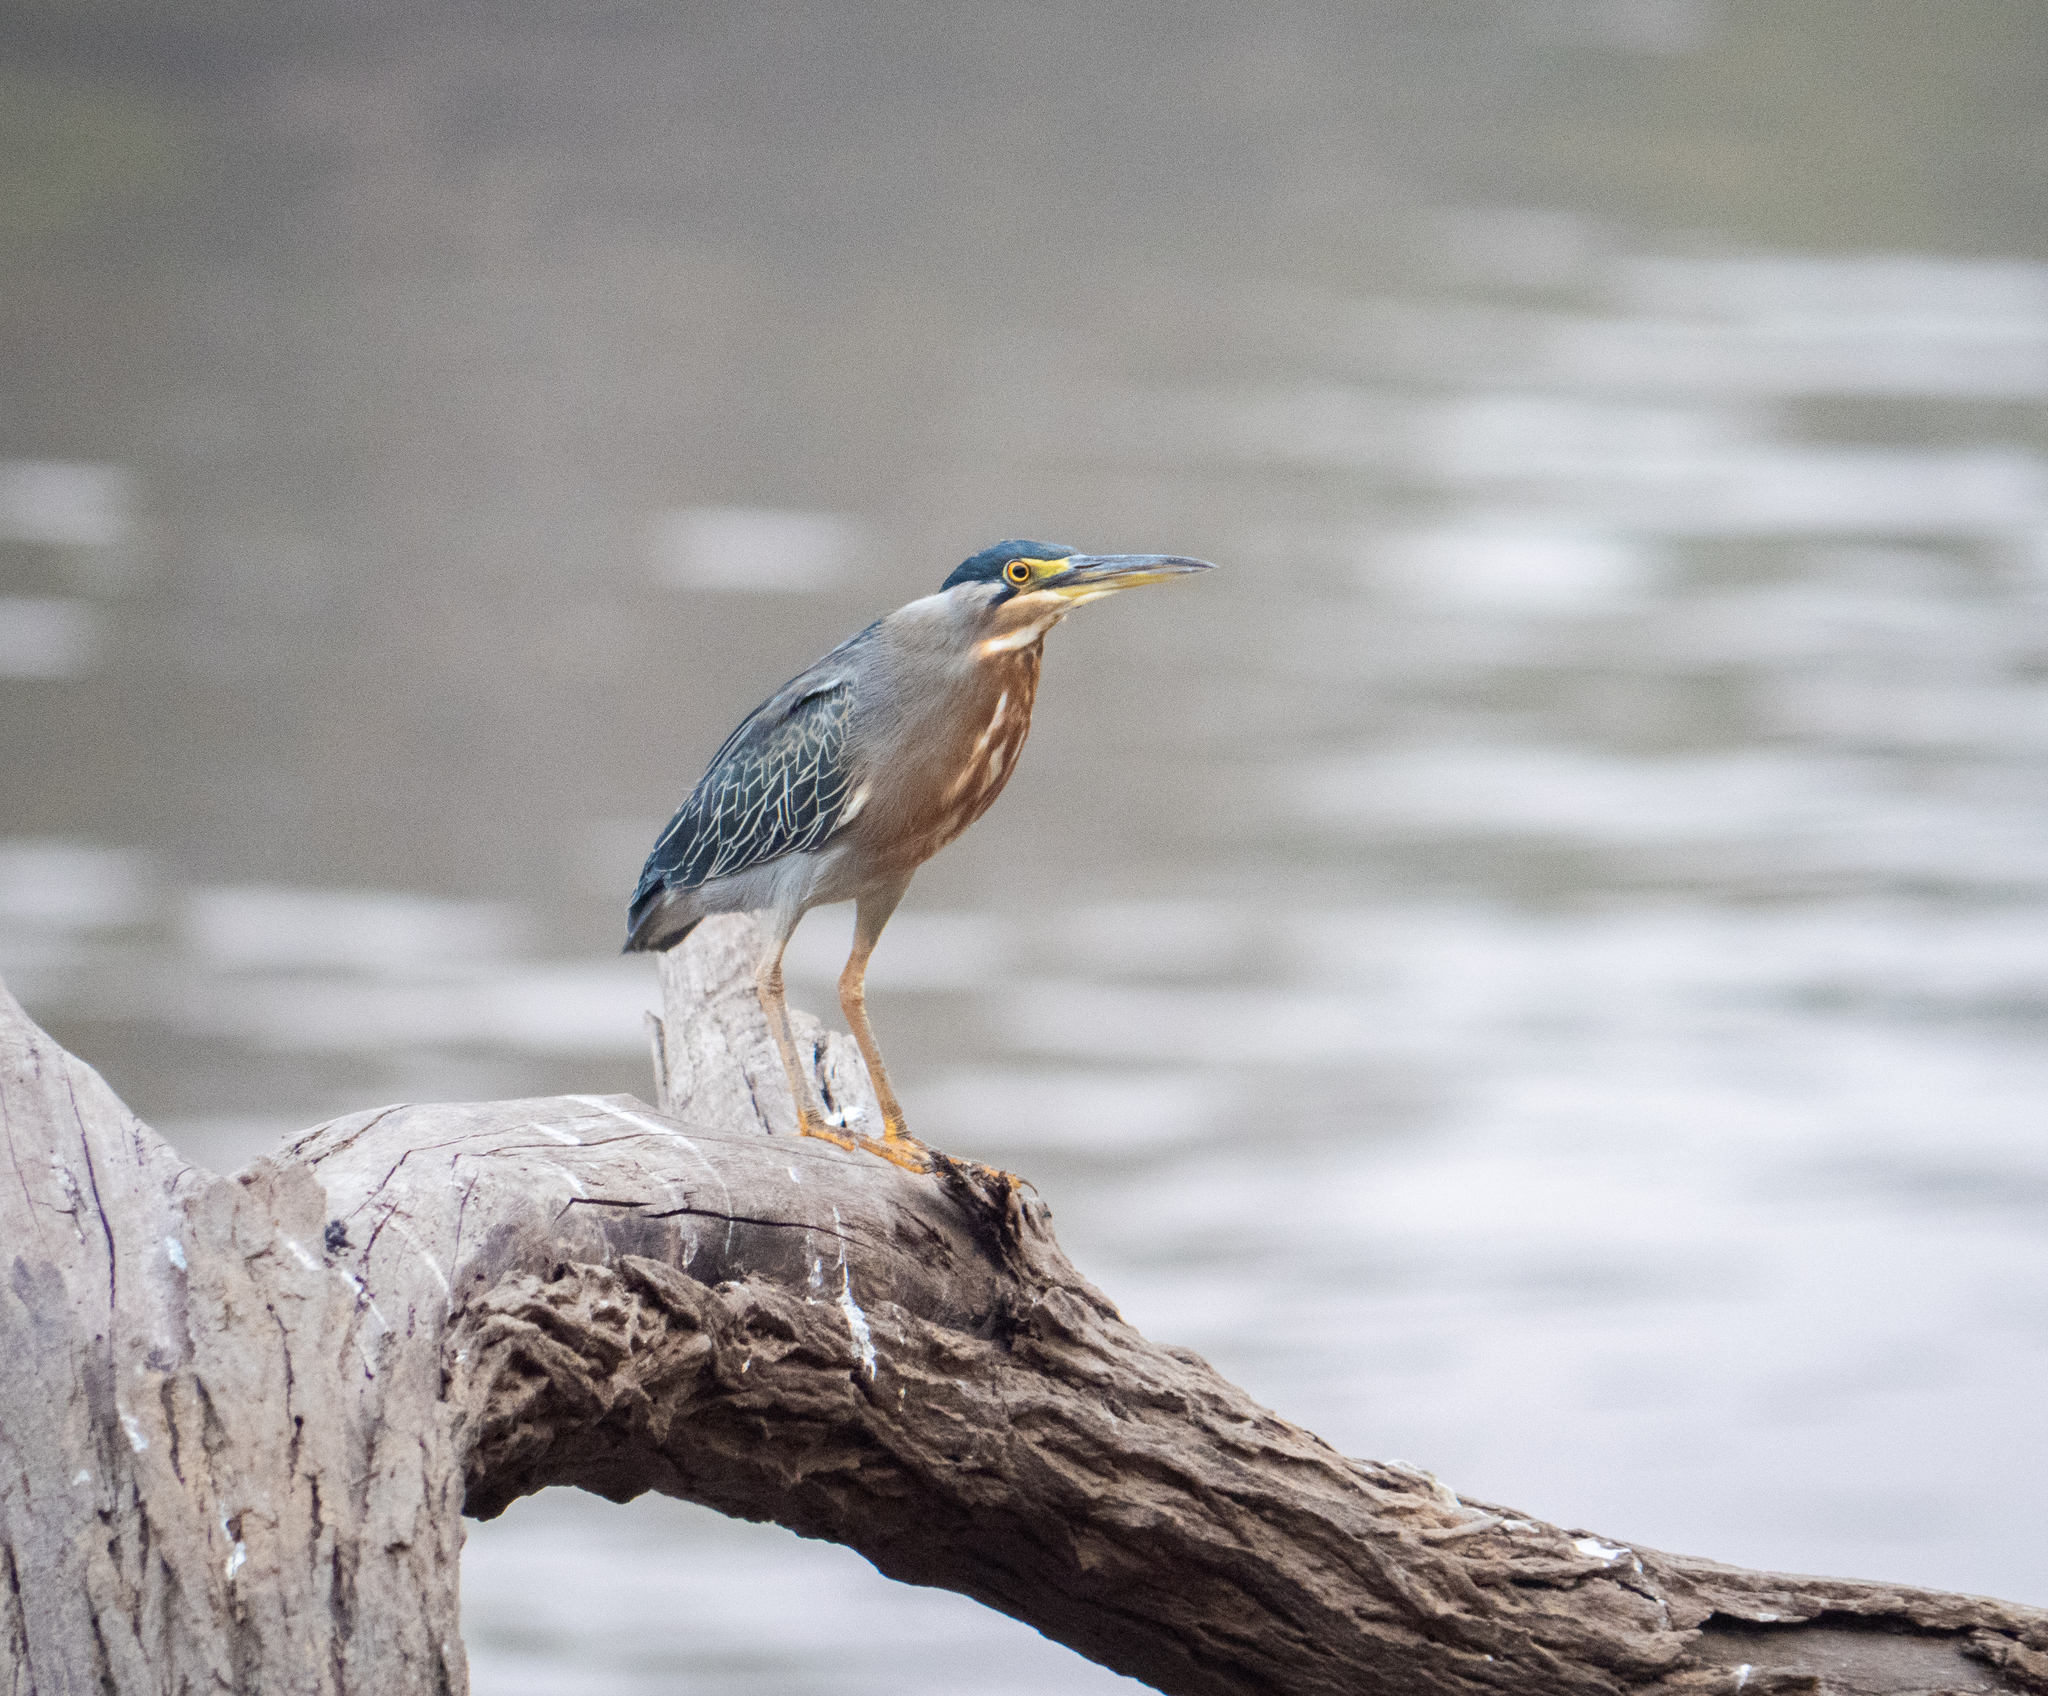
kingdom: Animalia
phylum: Chordata
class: Aves
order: Pelecaniformes
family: Ardeidae
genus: Butorides
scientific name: Butorides striata
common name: Striated heron
